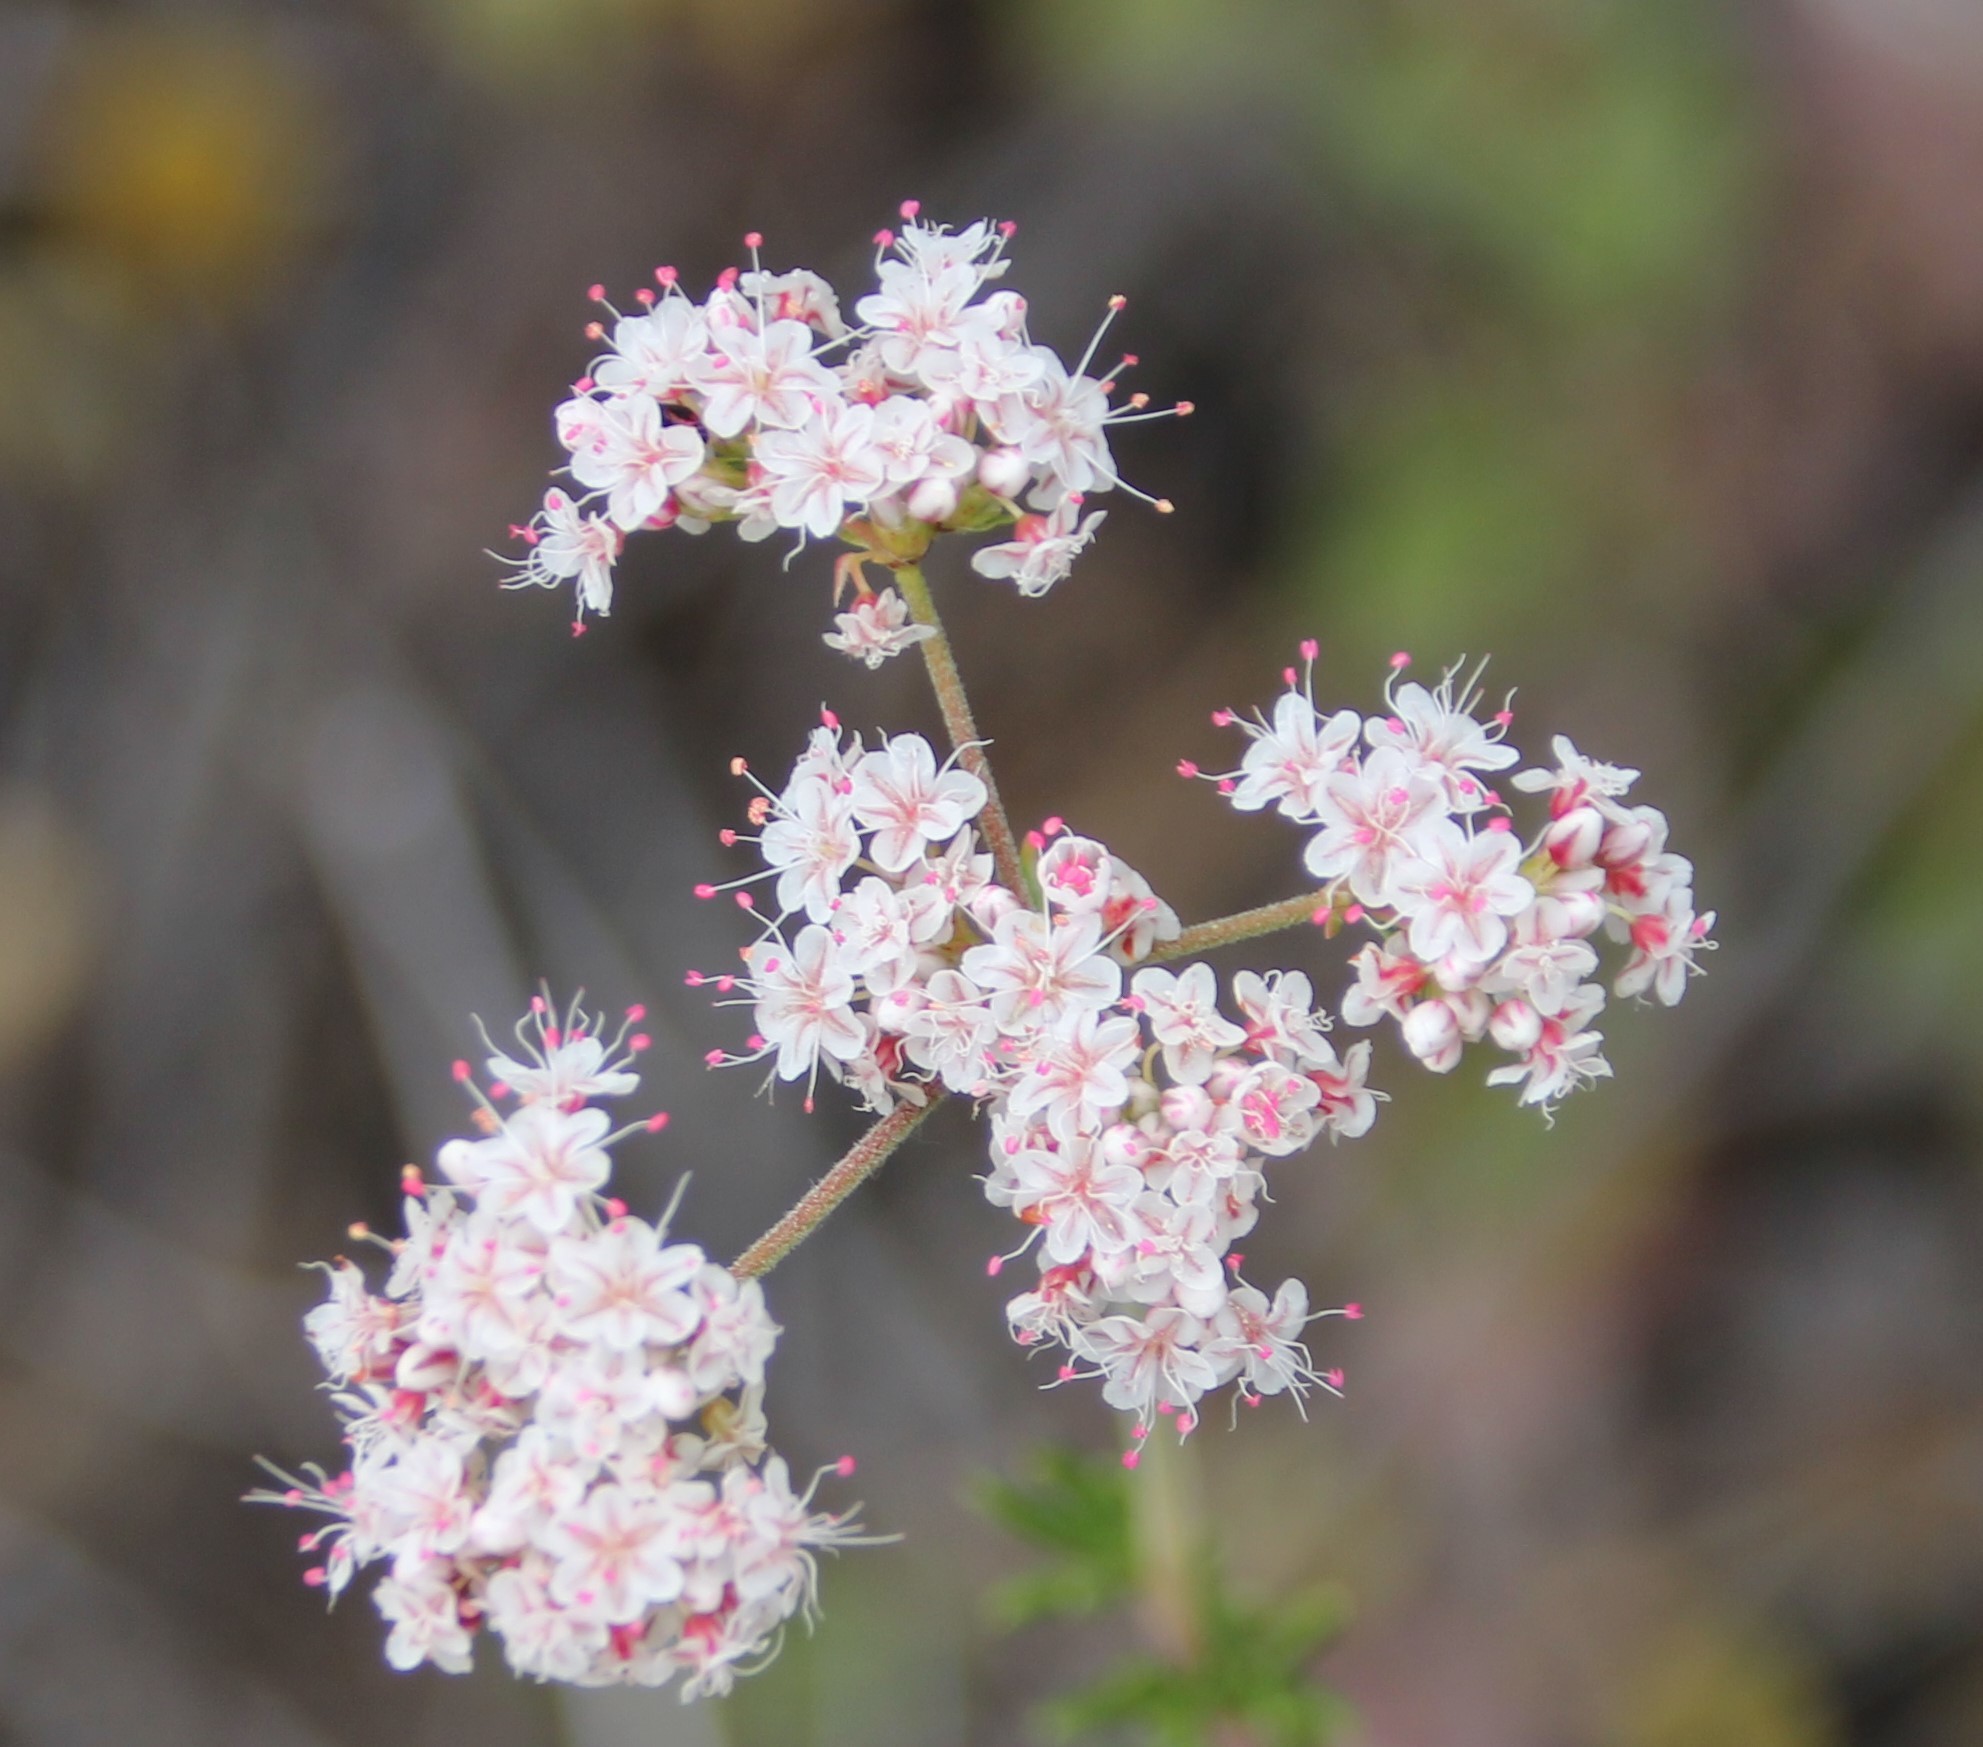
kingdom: Plantae
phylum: Tracheophyta
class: Magnoliopsida
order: Caryophyllales
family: Polygonaceae
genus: Eriogonum
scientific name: Eriogonum fasciculatum
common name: California wild buckwheat
